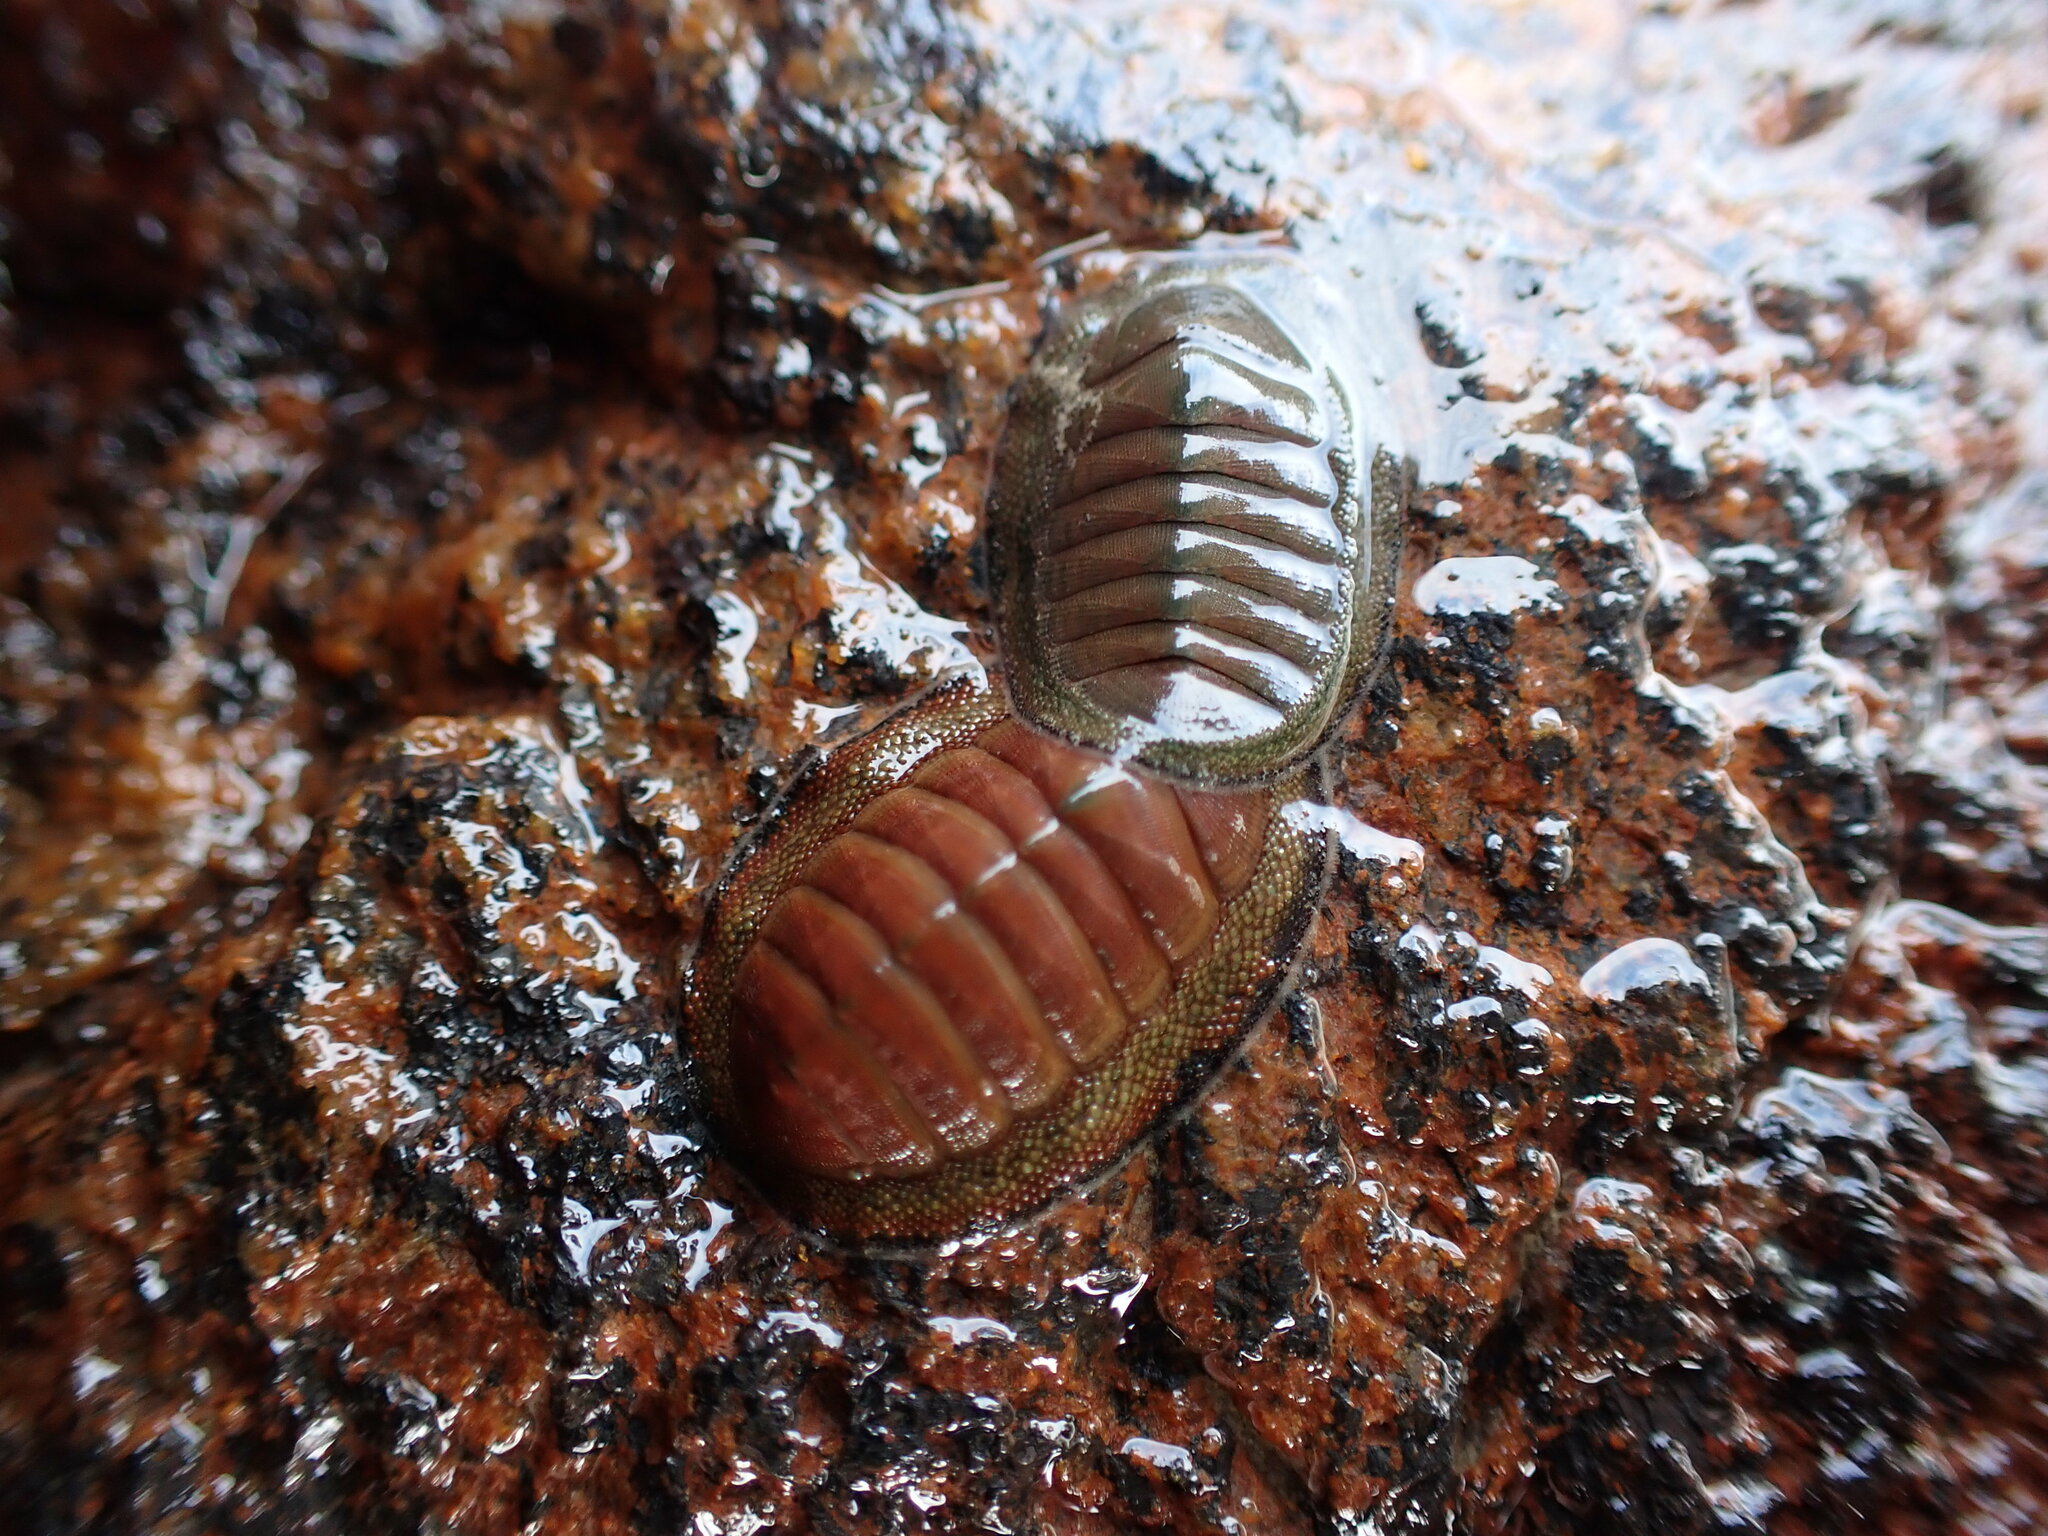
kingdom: Animalia
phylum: Mollusca
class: Polyplacophora
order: Chitonida
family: Chitonidae
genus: Chiton
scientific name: Chiton glaucus
